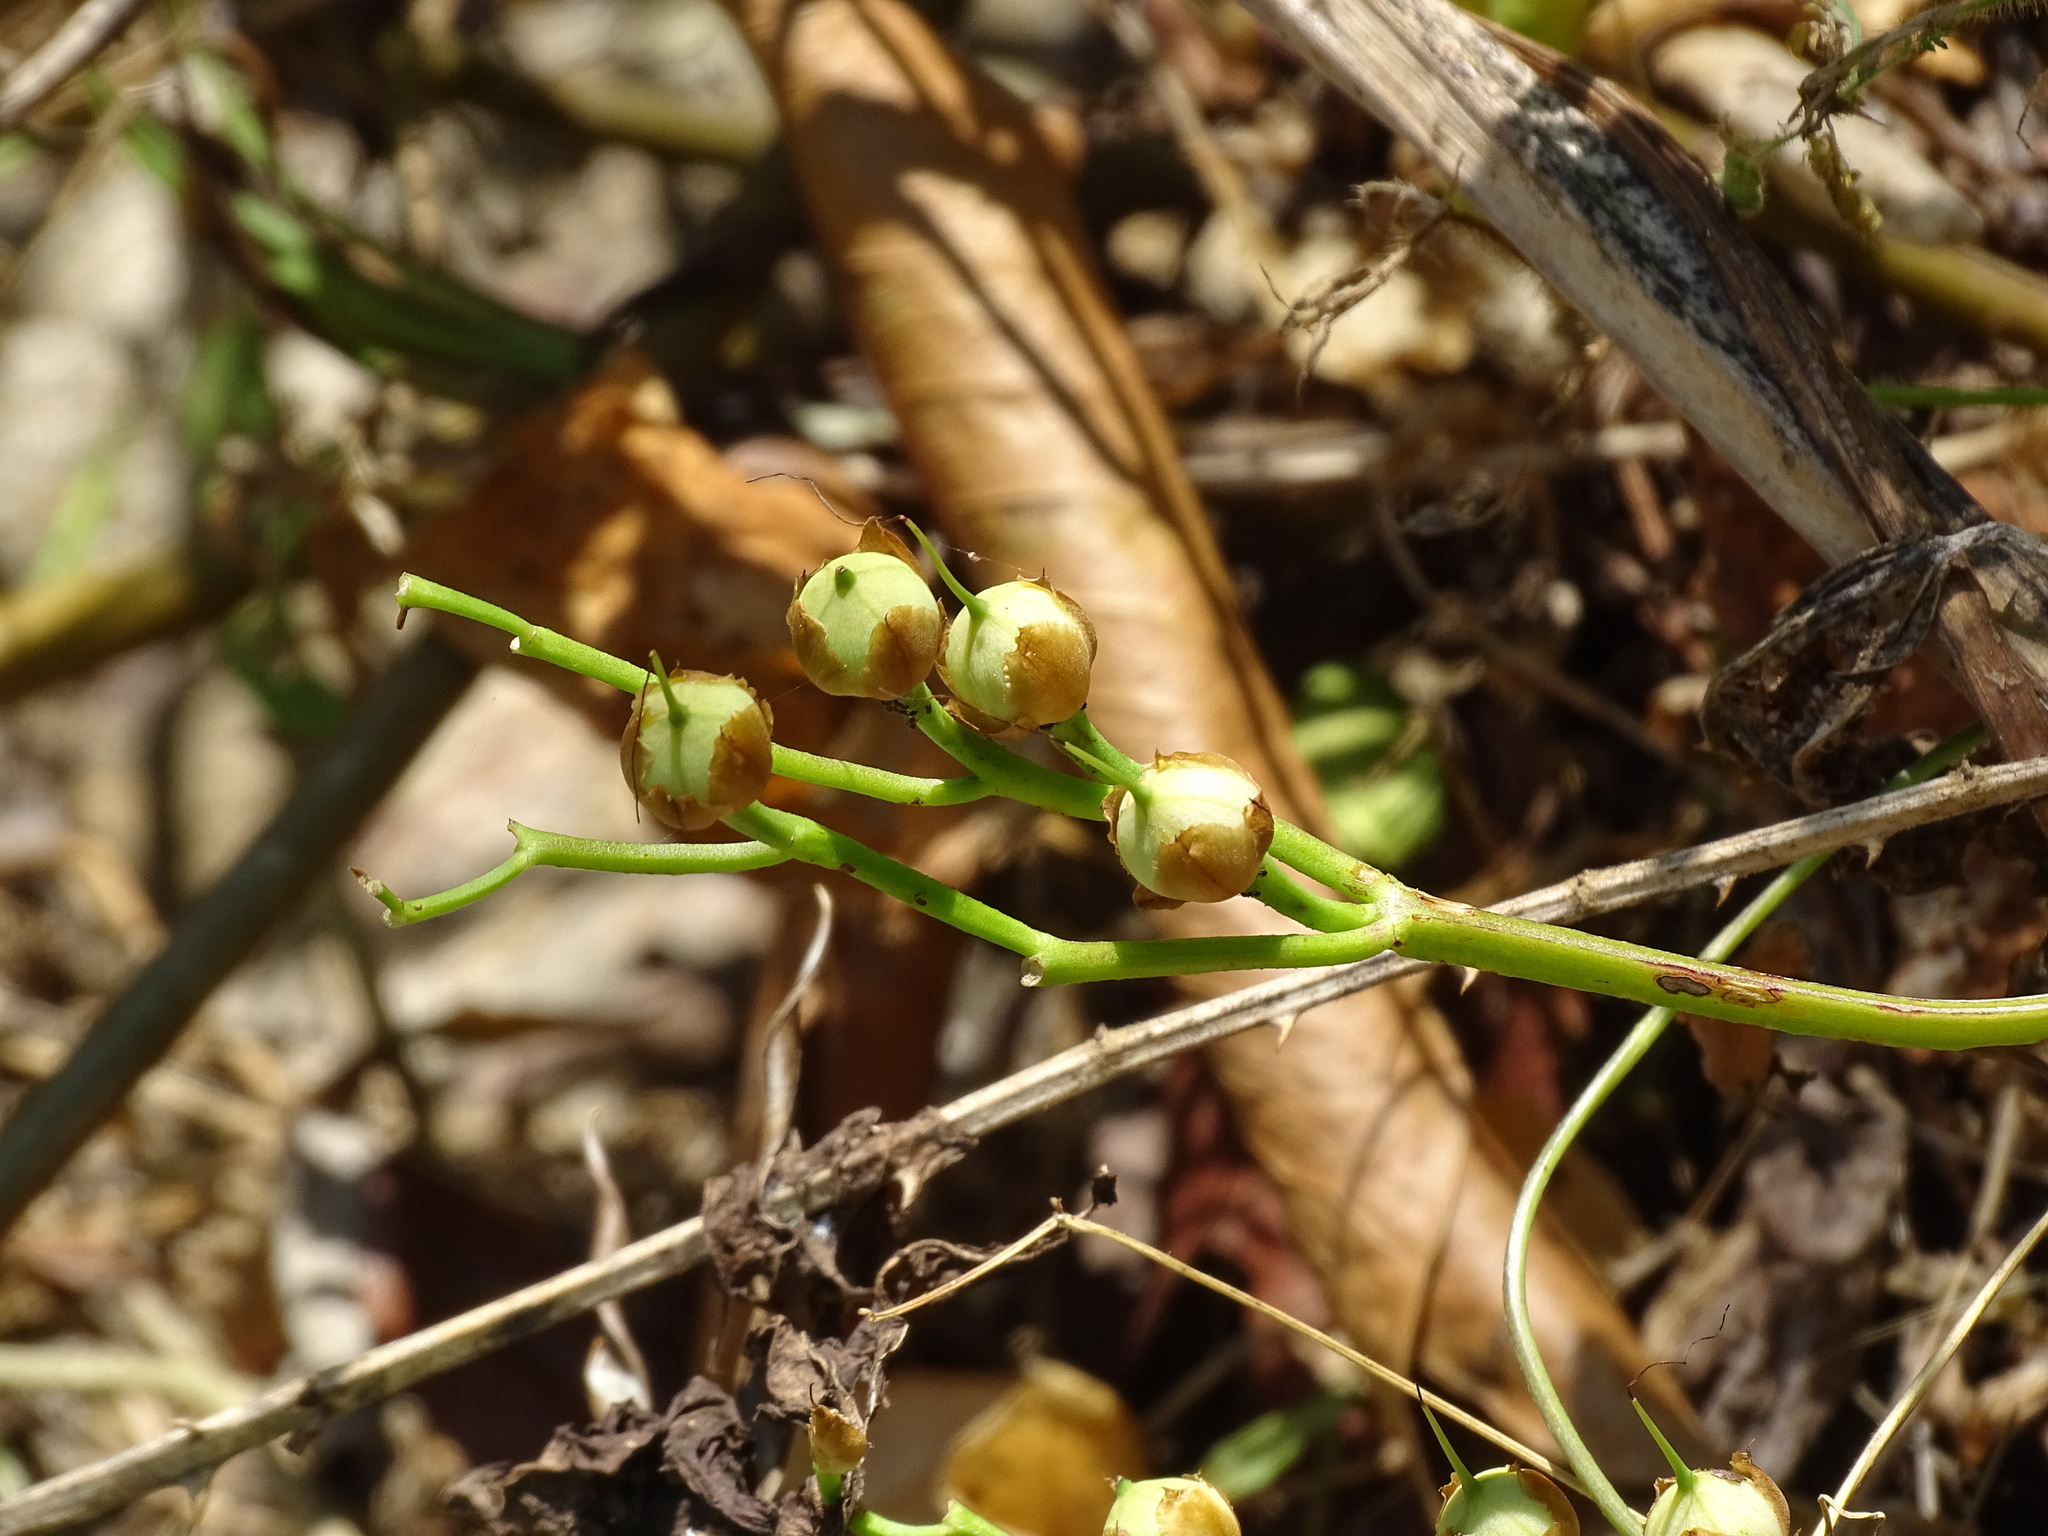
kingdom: Plantae
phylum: Tracheophyta
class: Magnoliopsida
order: Solanales
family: Convolvulaceae
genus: Ipomoea
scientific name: Ipomoea splendor-sylvae
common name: Morning glory
